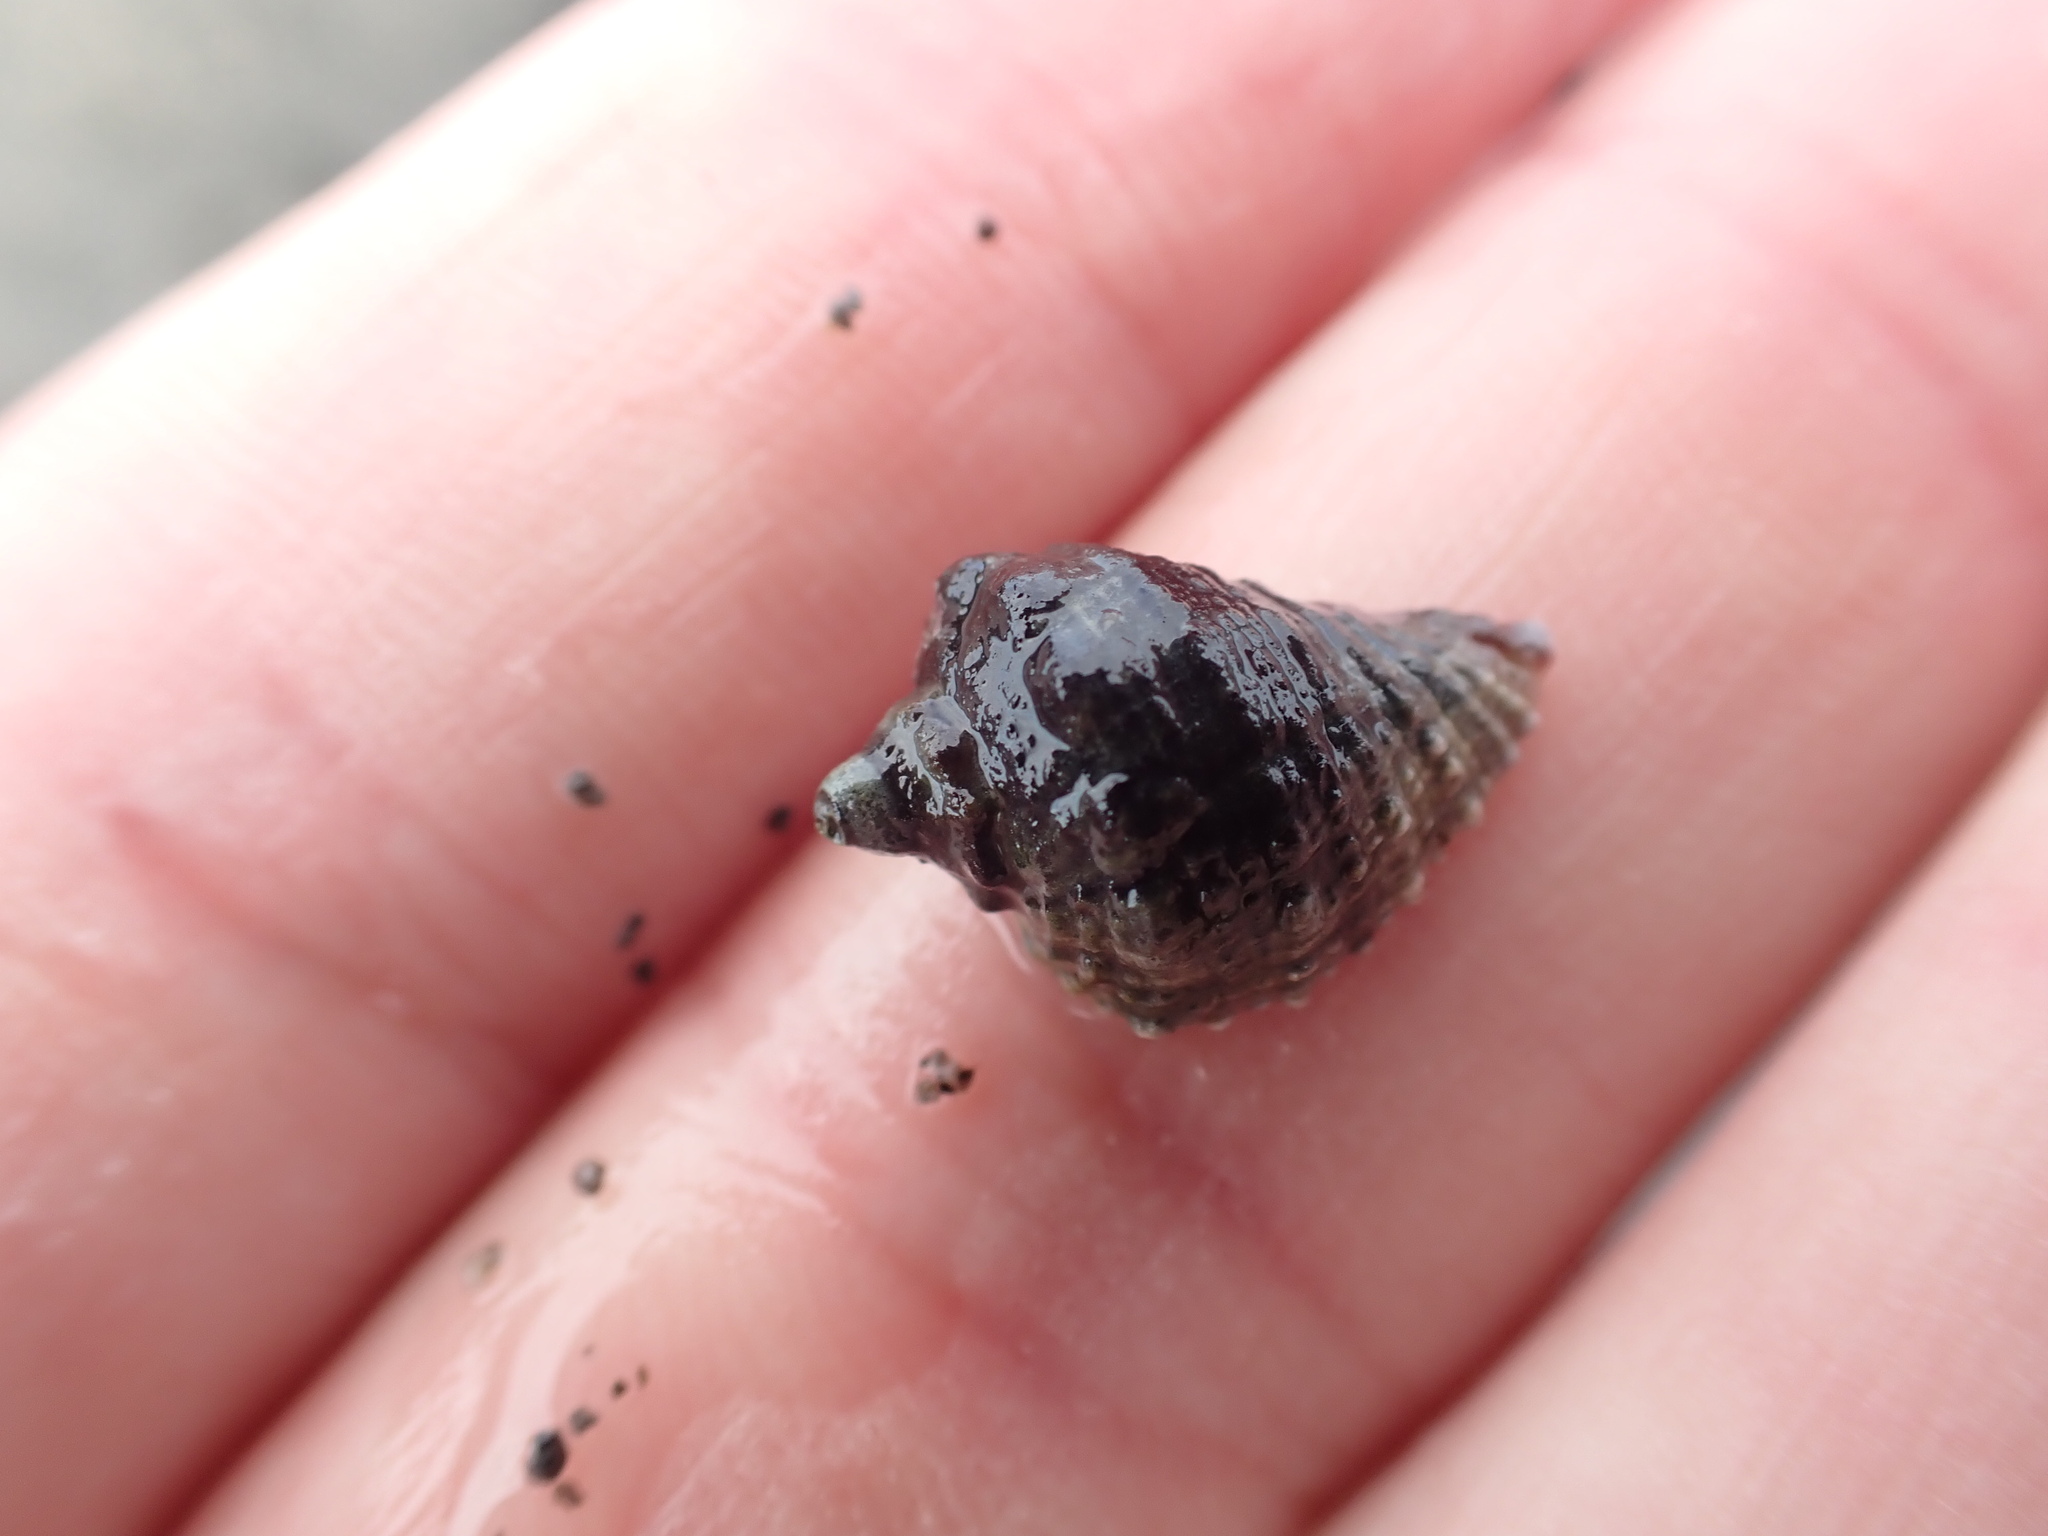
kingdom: Animalia
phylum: Mollusca
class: Gastropoda
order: Neogastropoda
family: Muricidae
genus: Haustrum
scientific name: Haustrum haustorium
